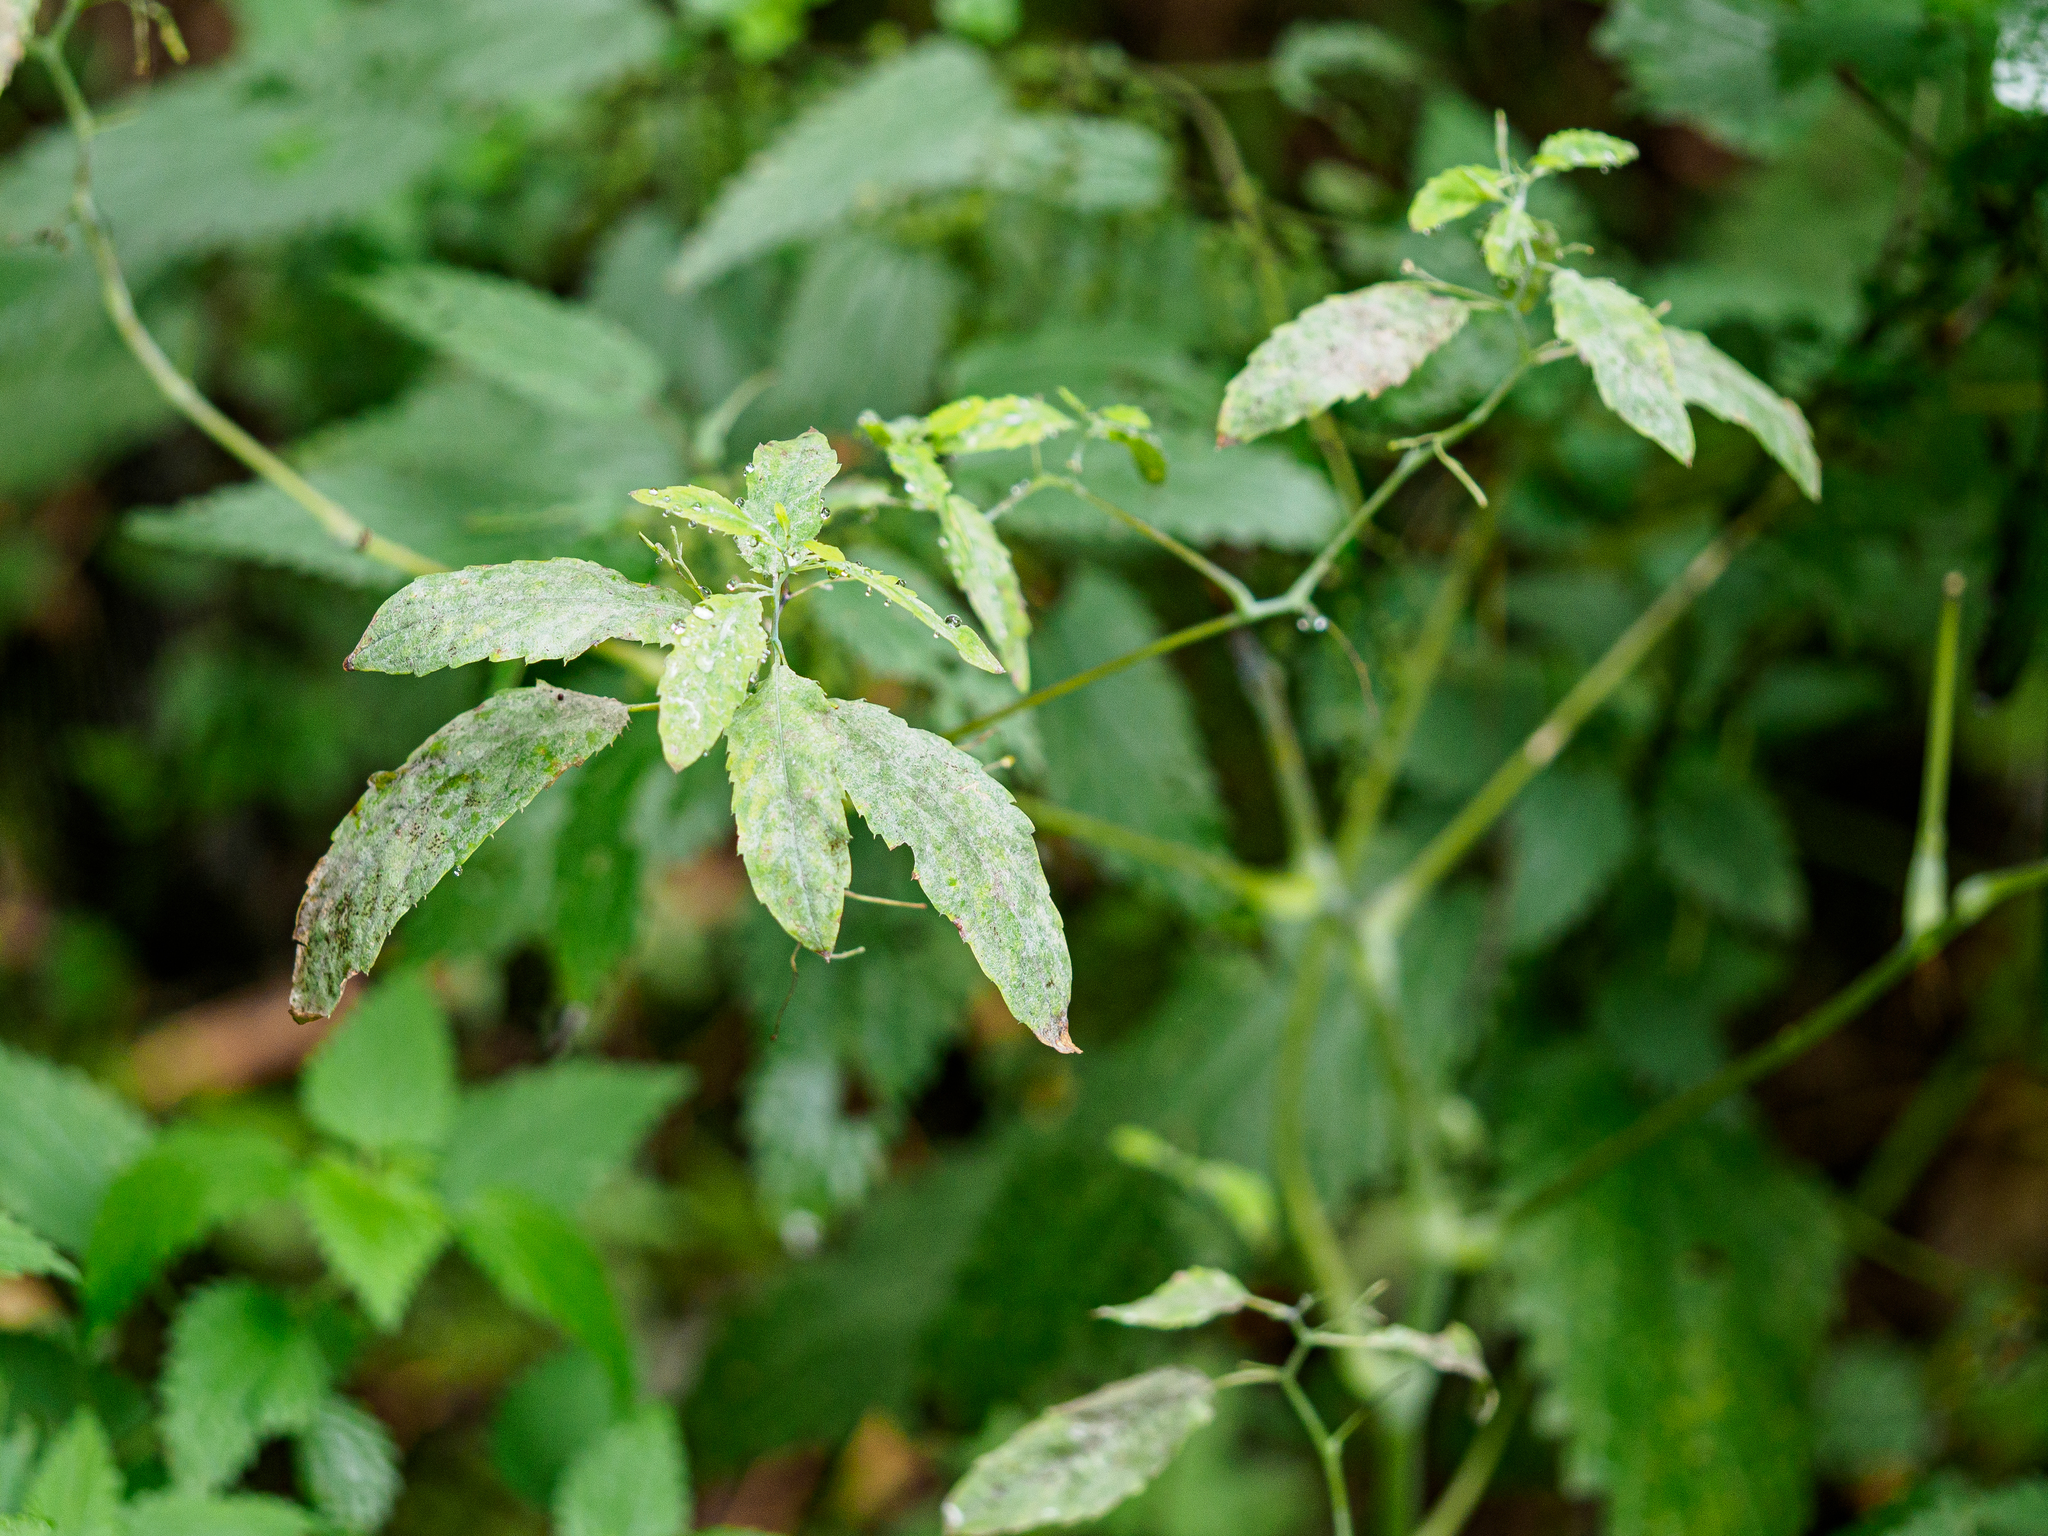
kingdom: Fungi
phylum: Ascomycota
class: Leotiomycetes
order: Helotiales
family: Erysiphaceae
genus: Podosphaera
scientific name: Podosphaera balsaminae
